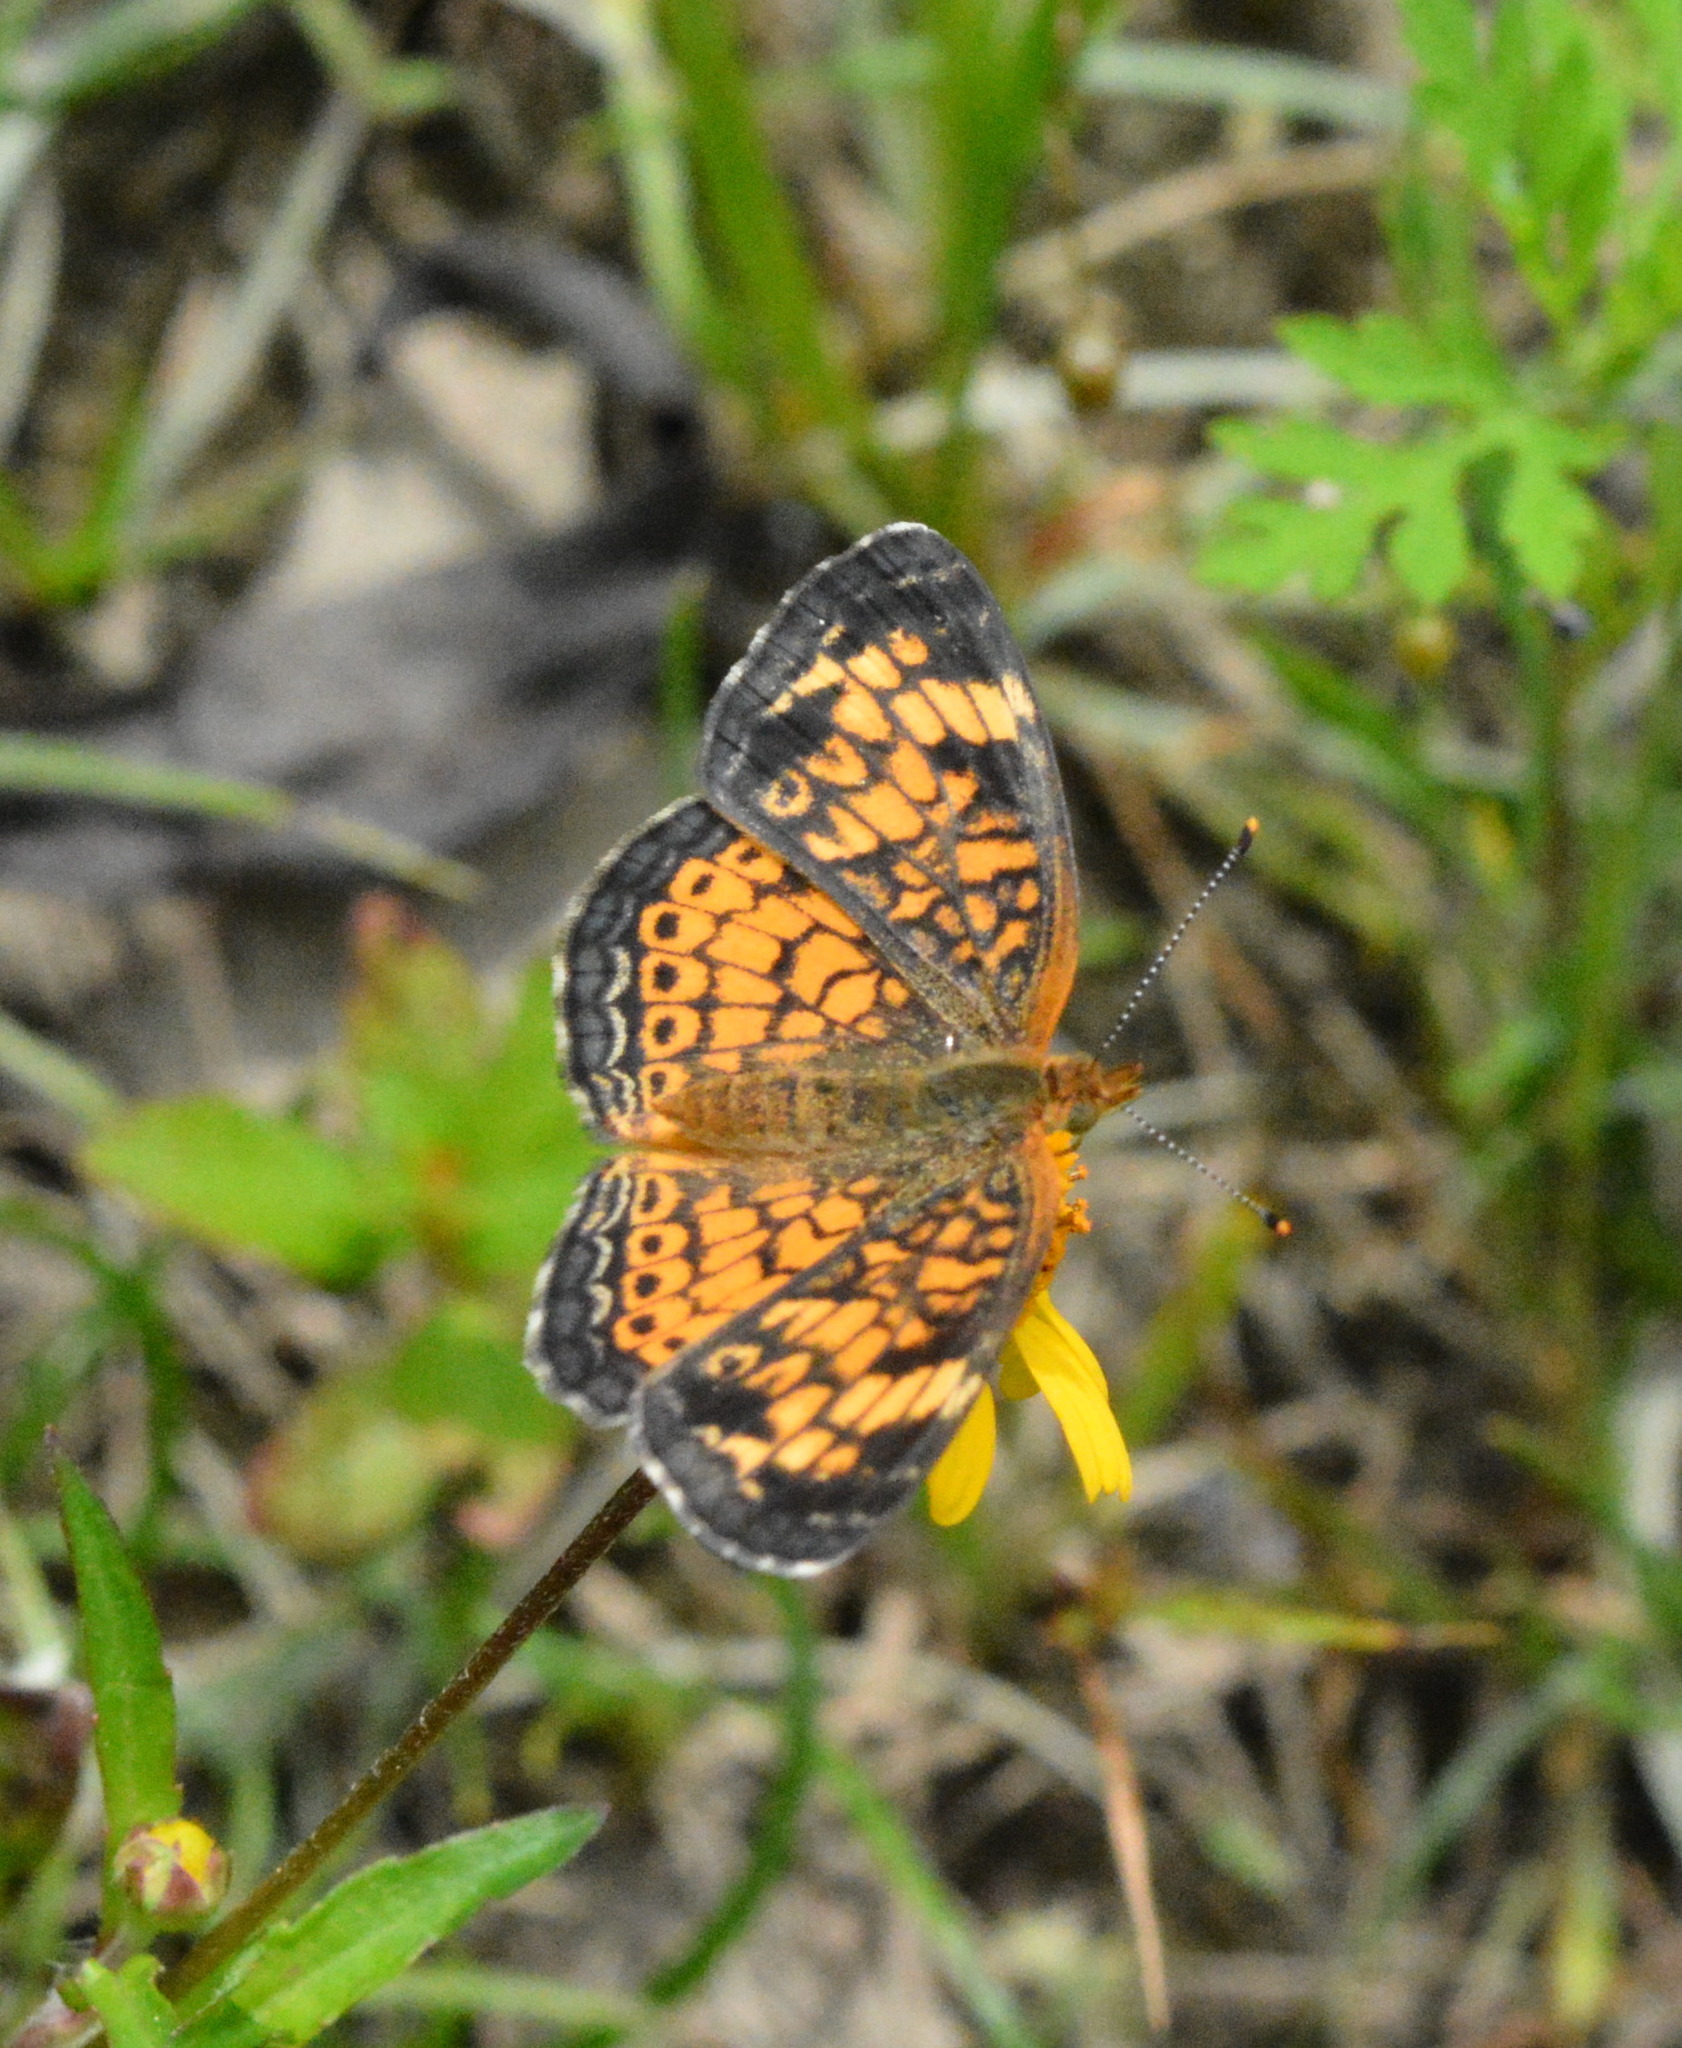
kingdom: Animalia
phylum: Arthropoda
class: Insecta
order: Lepidoptera
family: Nymphalidae
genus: Phyciodes
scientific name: Phyciodes tharos
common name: Pearl crescent
